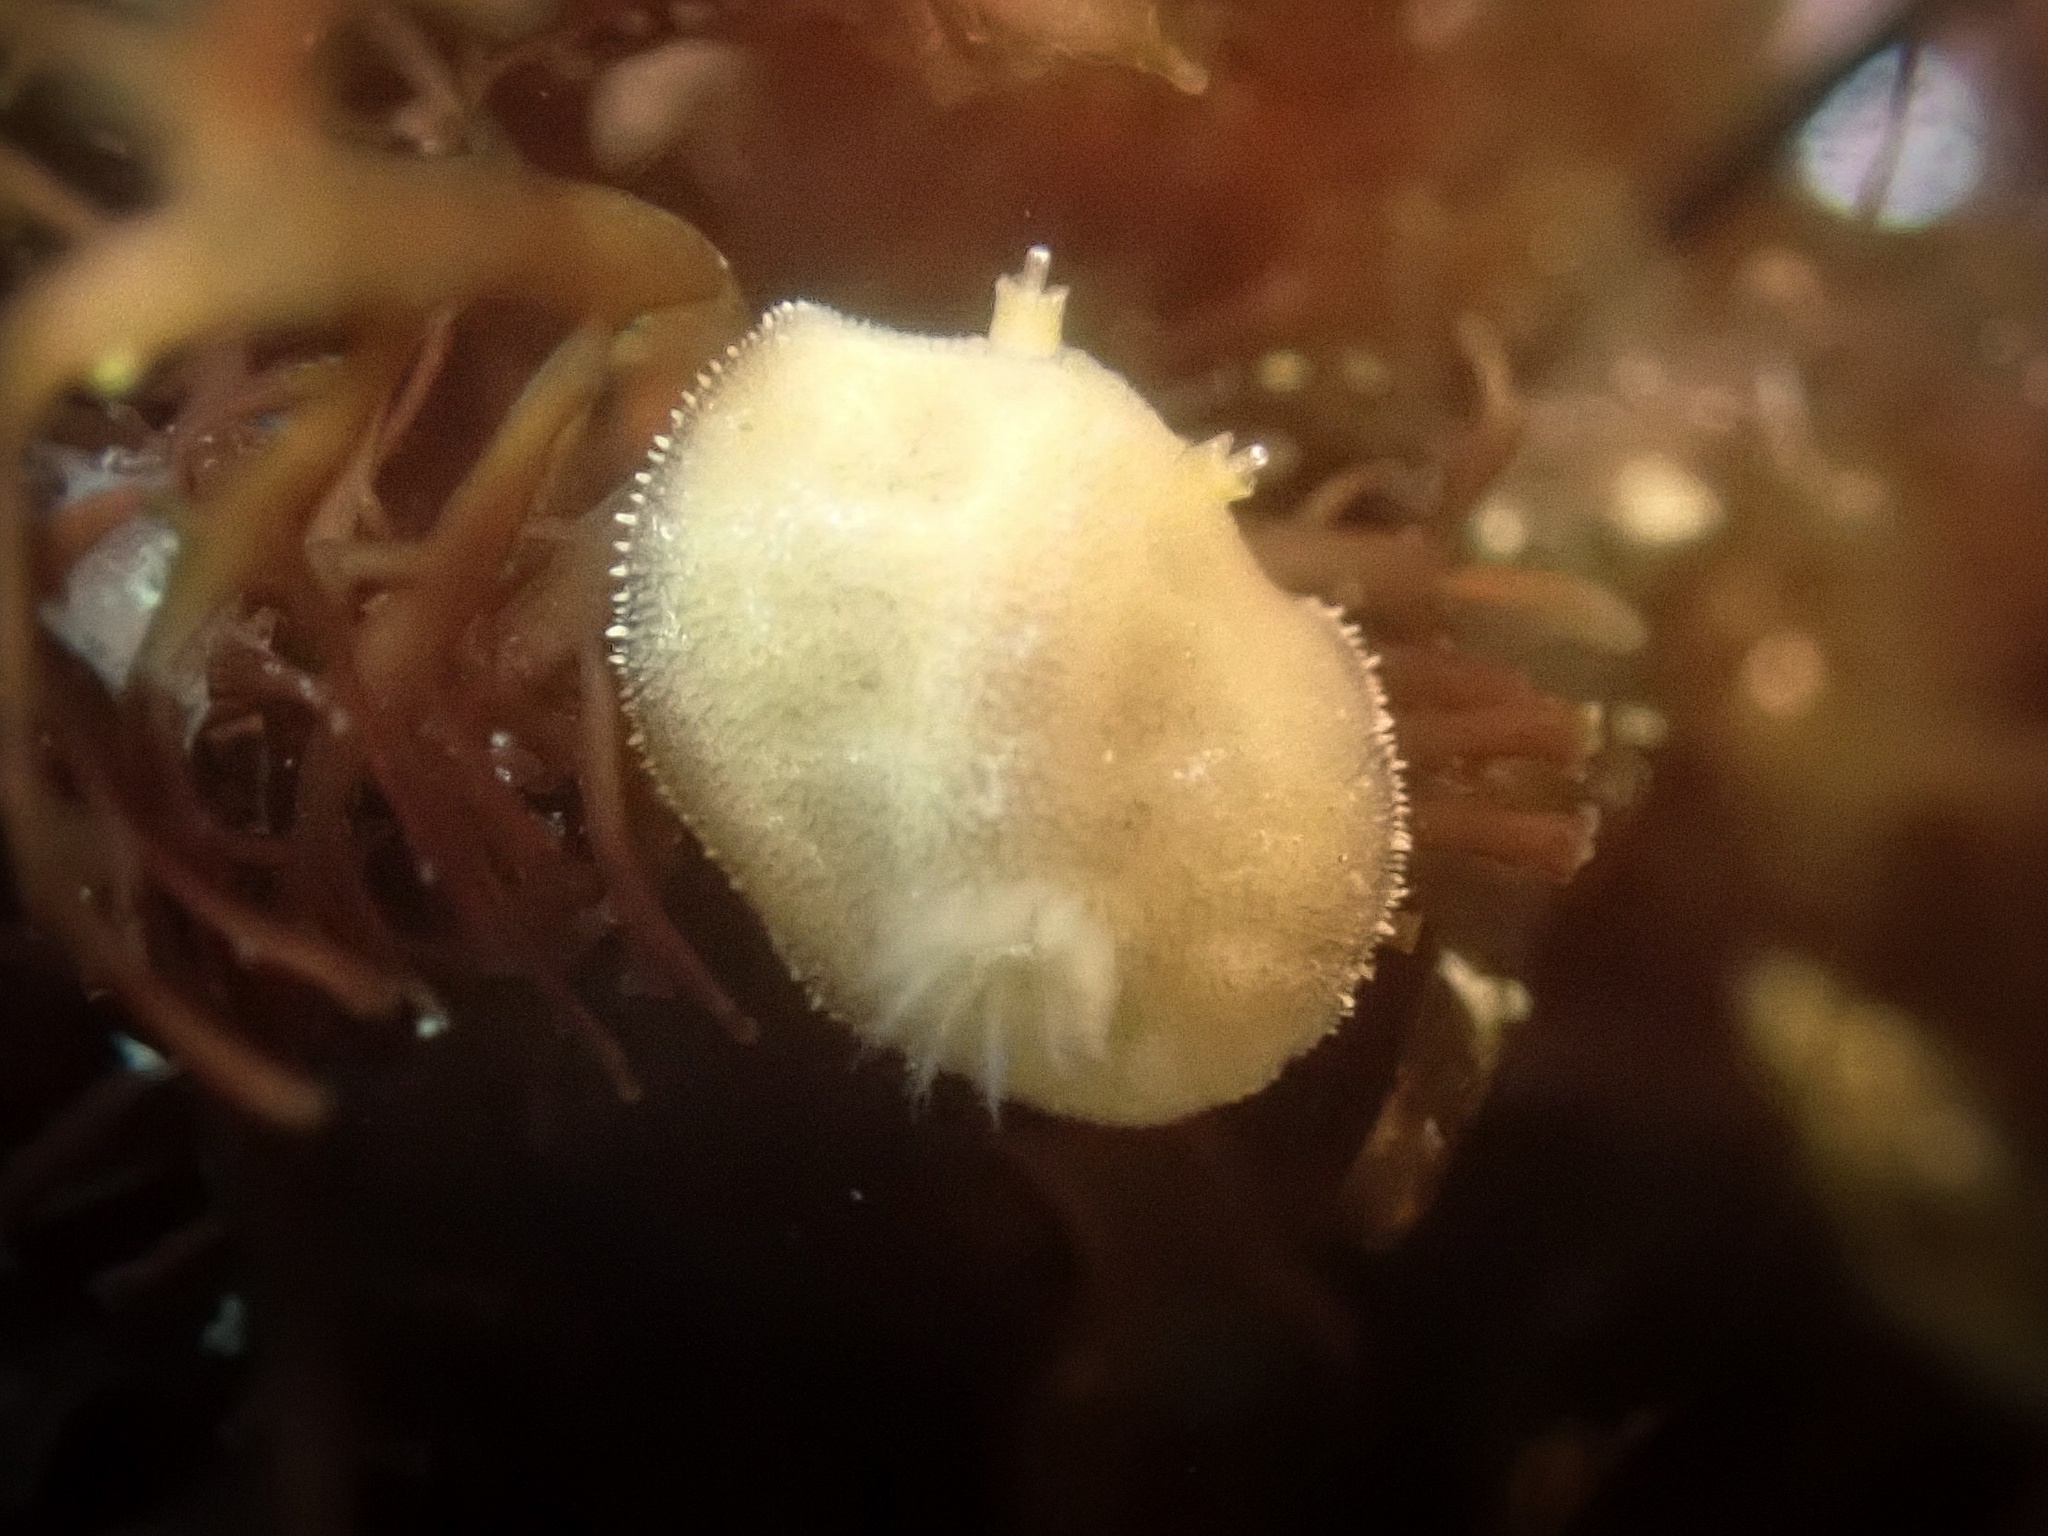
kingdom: Animalia
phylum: Mollusca
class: Gastropoda
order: Nudibranchia
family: Discodorididae
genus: Rostanga
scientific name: Rostanga pulchra
